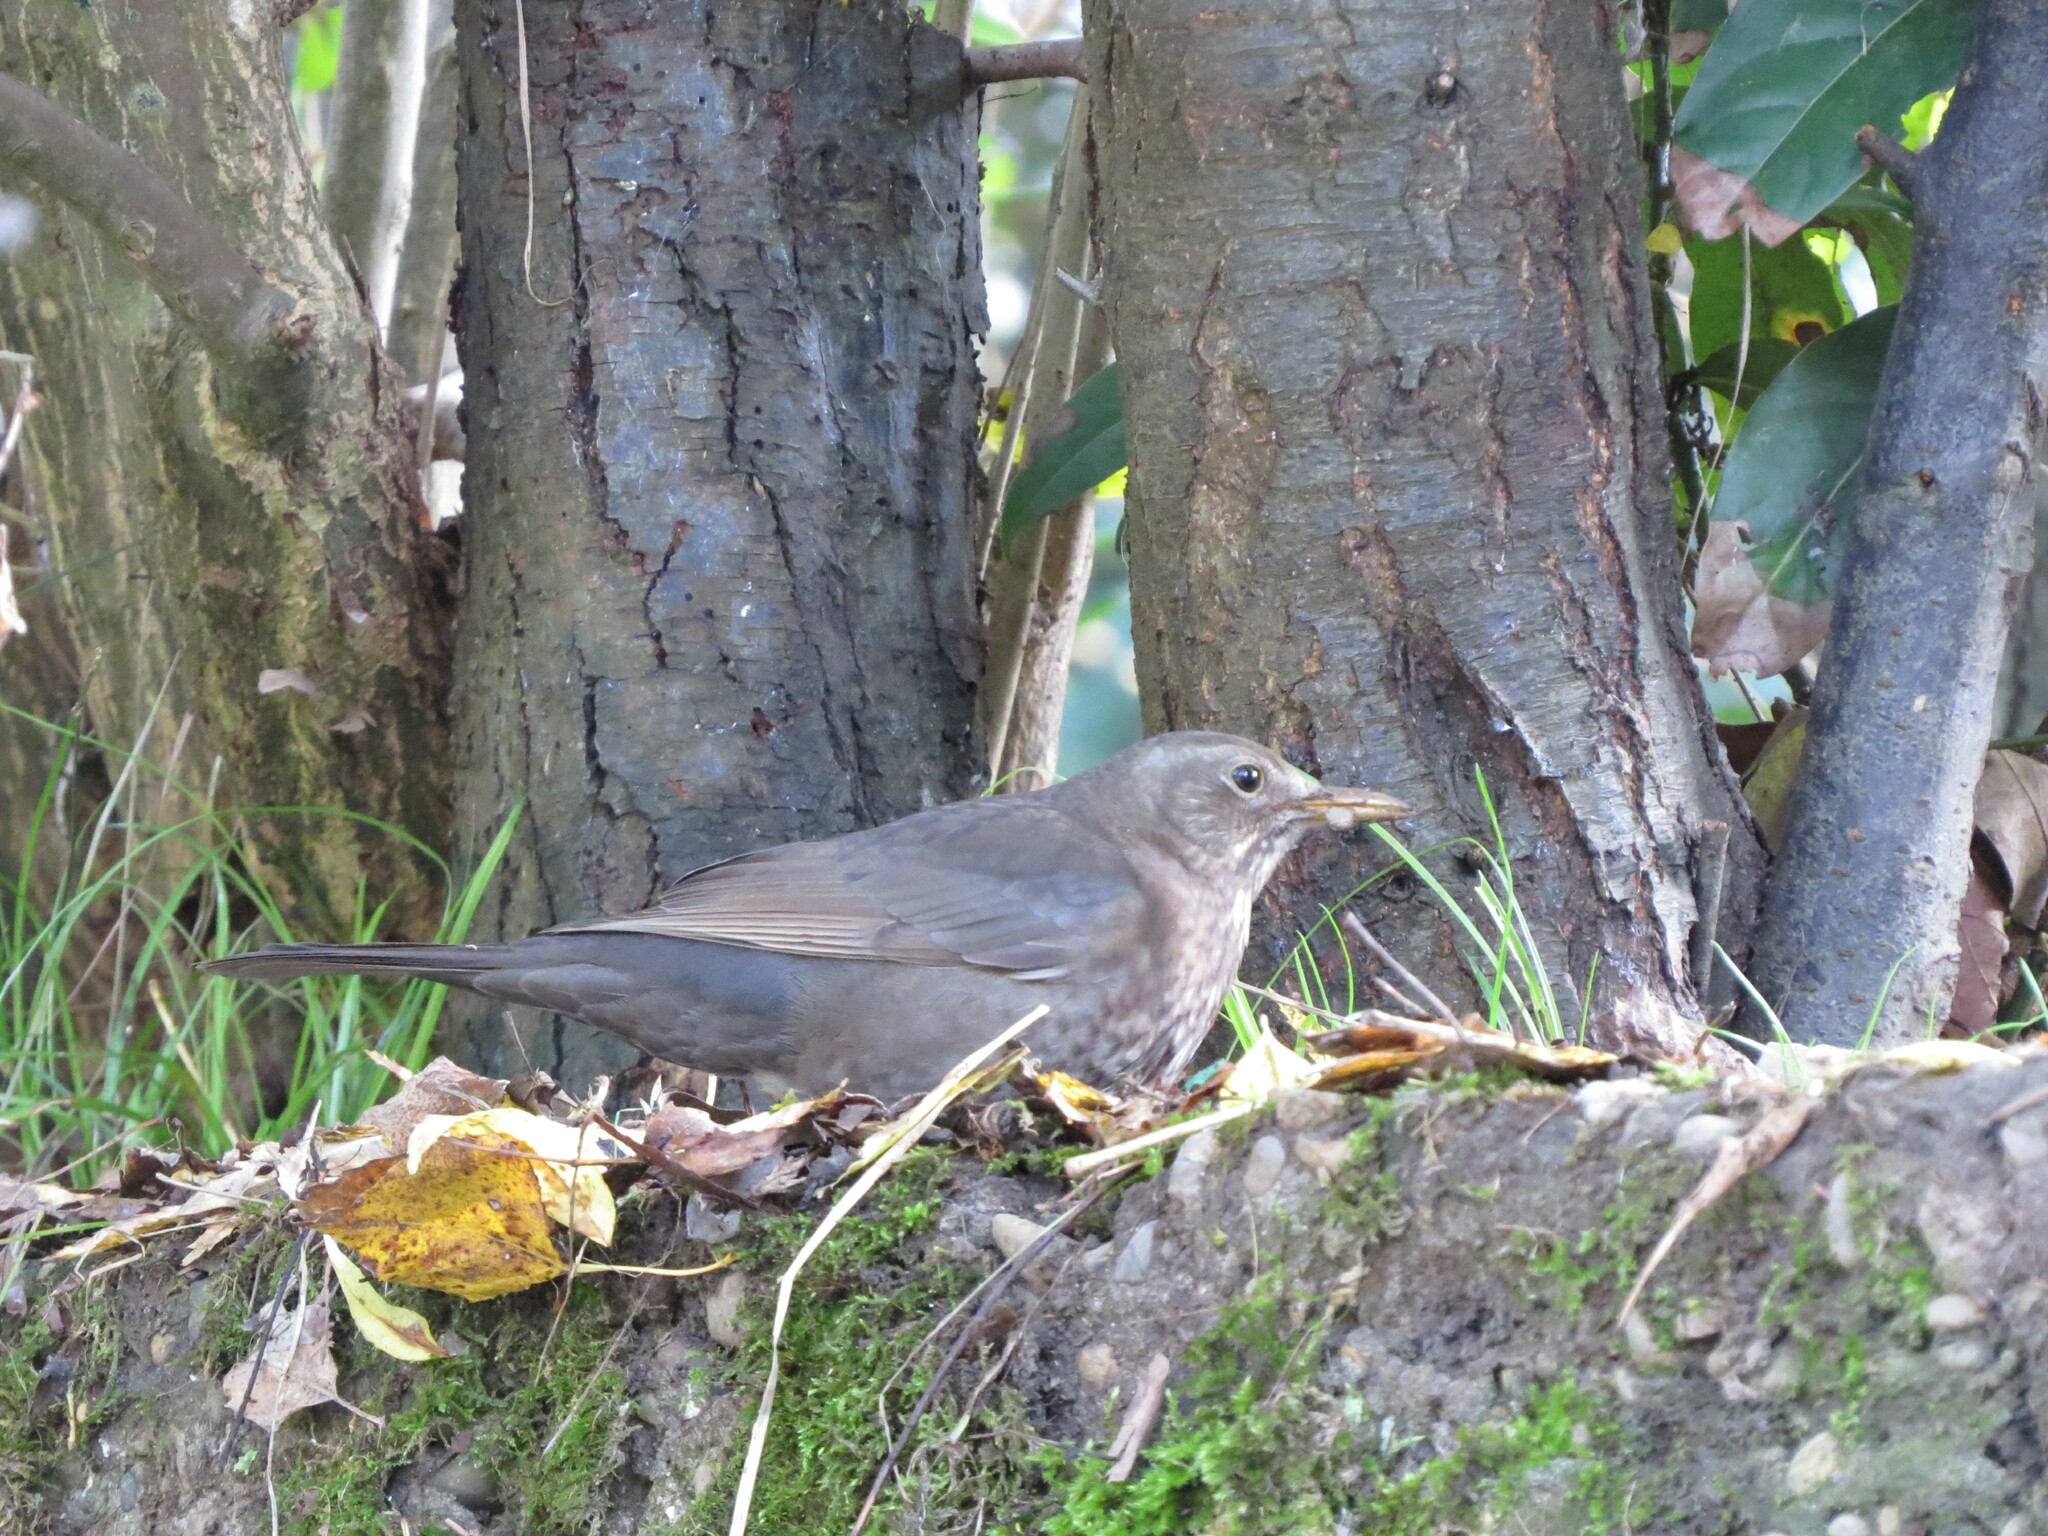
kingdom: Animalia
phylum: Chordata
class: Aves
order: Passeriformes
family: Turdidae
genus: Turdus
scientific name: Turdus merula
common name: Common blackbird
